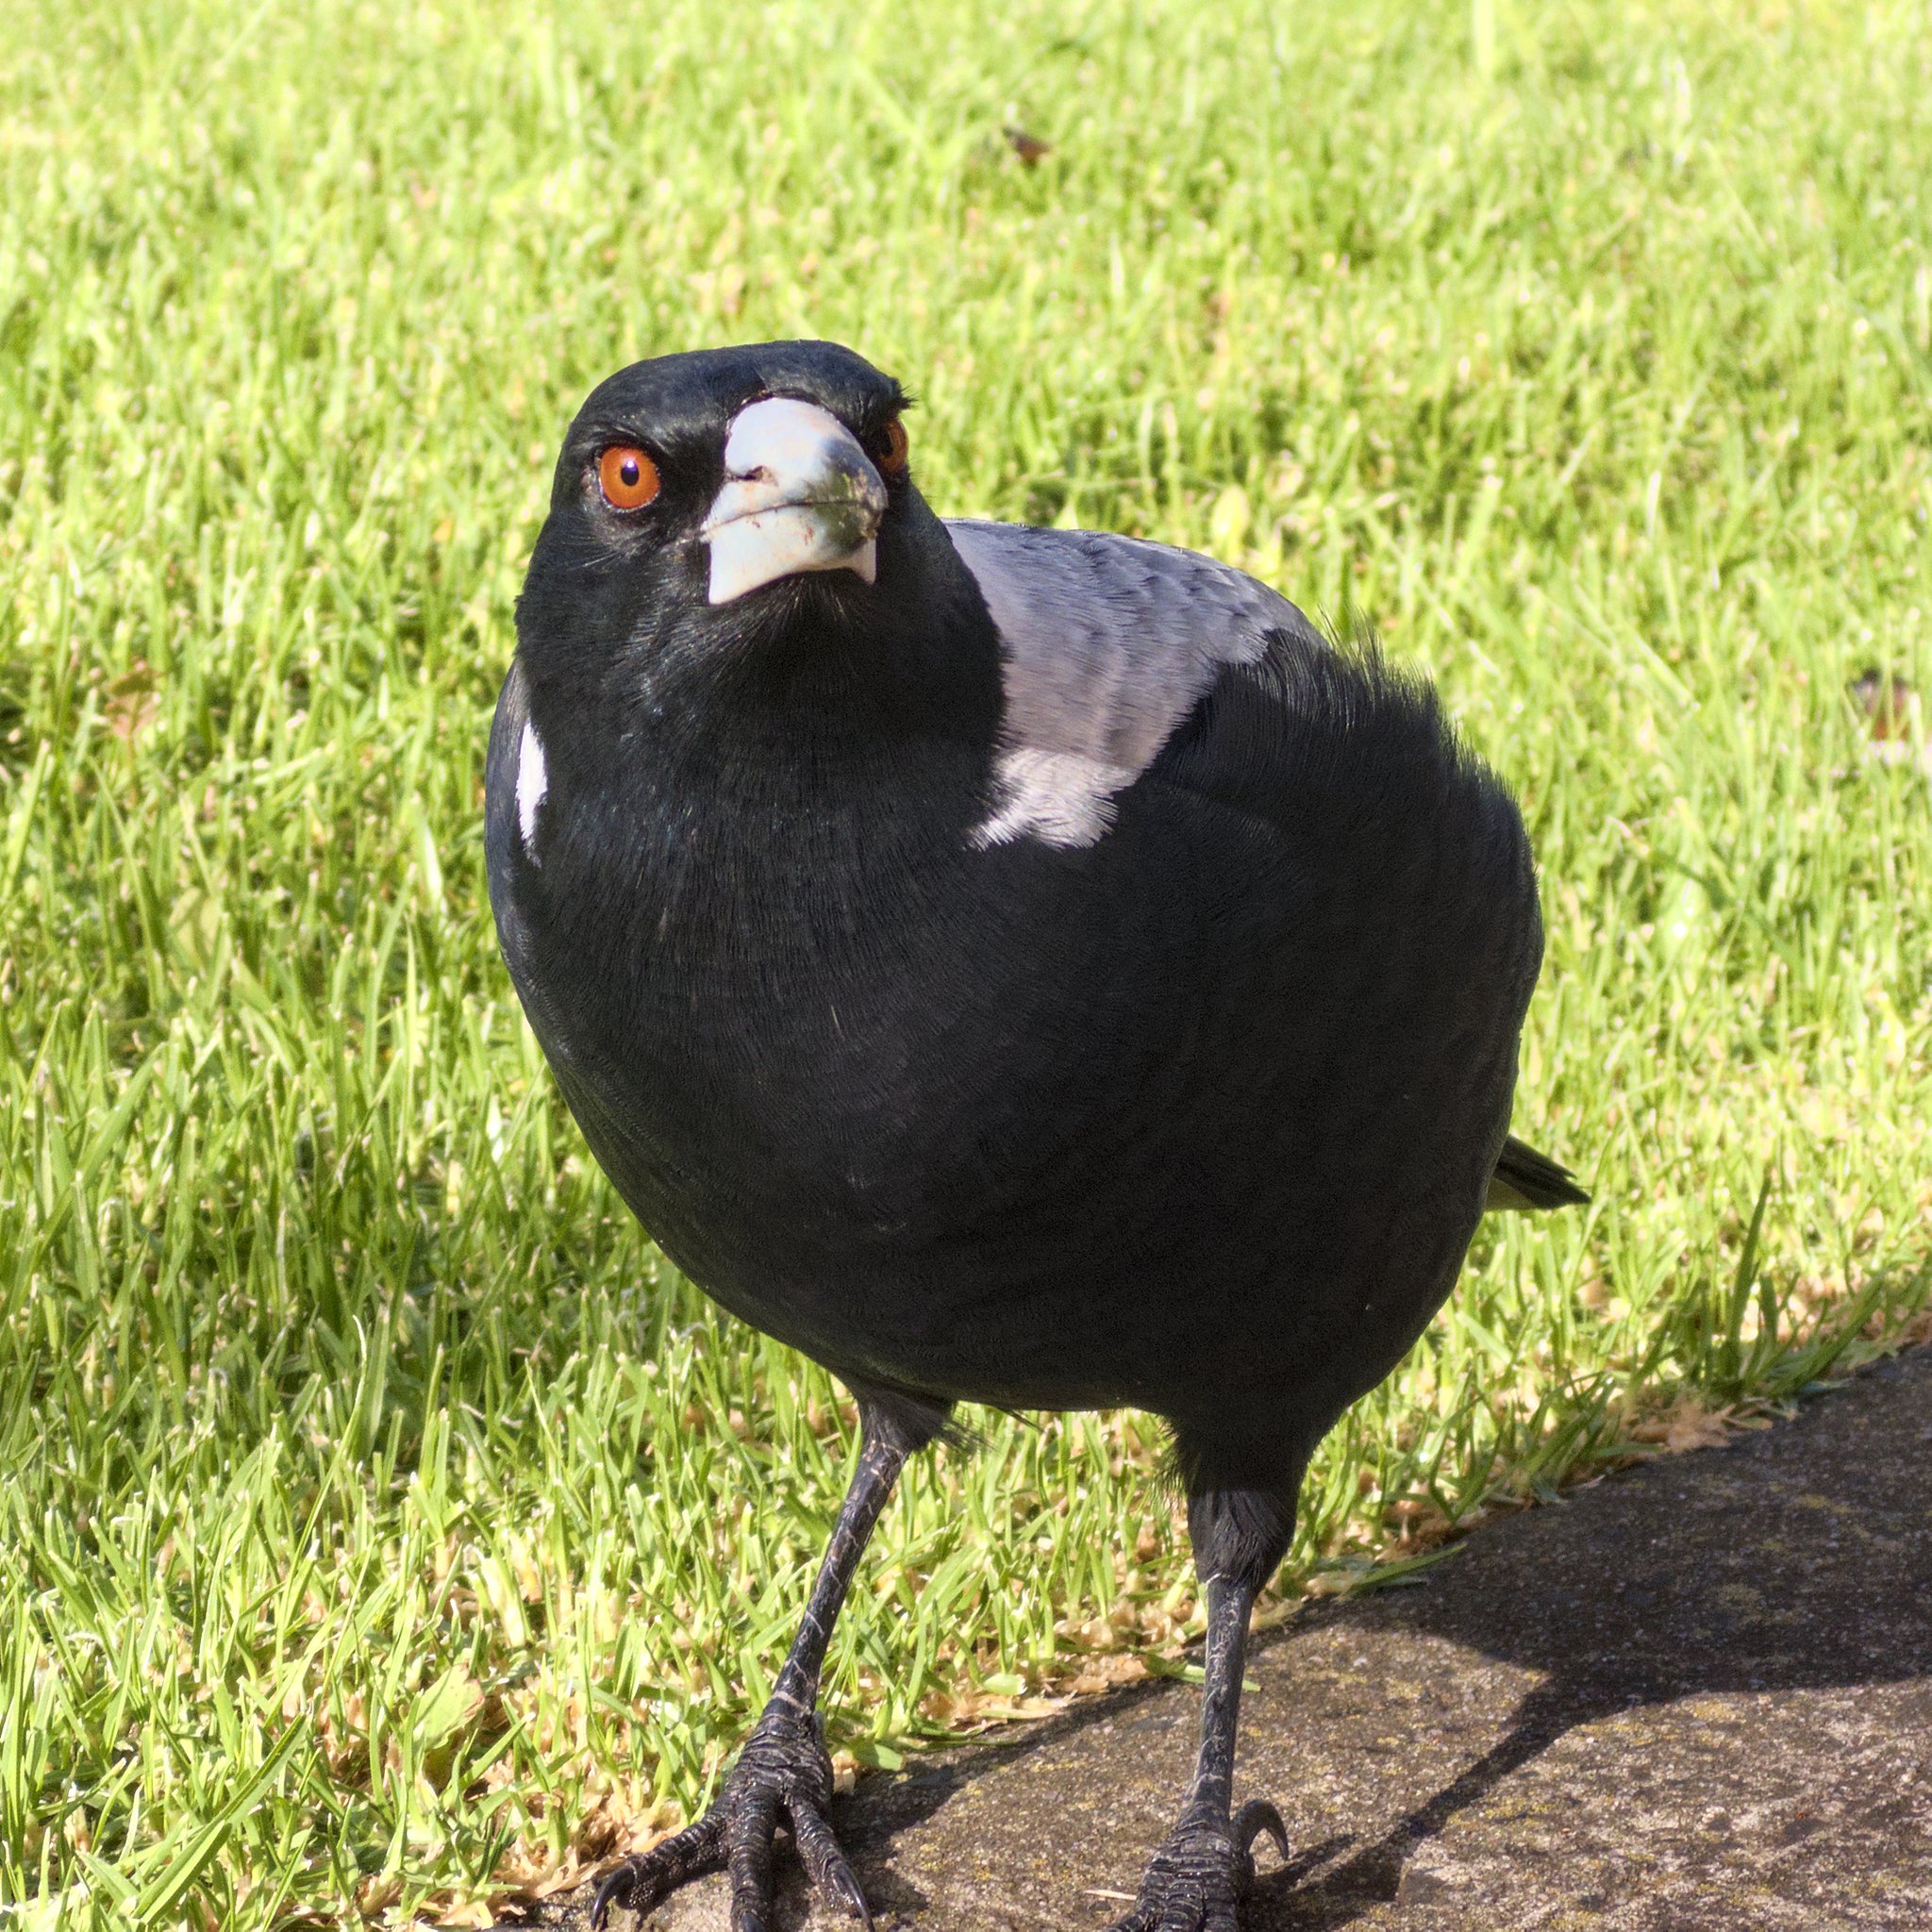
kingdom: Animalia
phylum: Chordata
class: Aves
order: Passeriformes
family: Cracticidae
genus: Gymnorhina
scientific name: Gymnorhina tibicen
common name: Australian magpie
